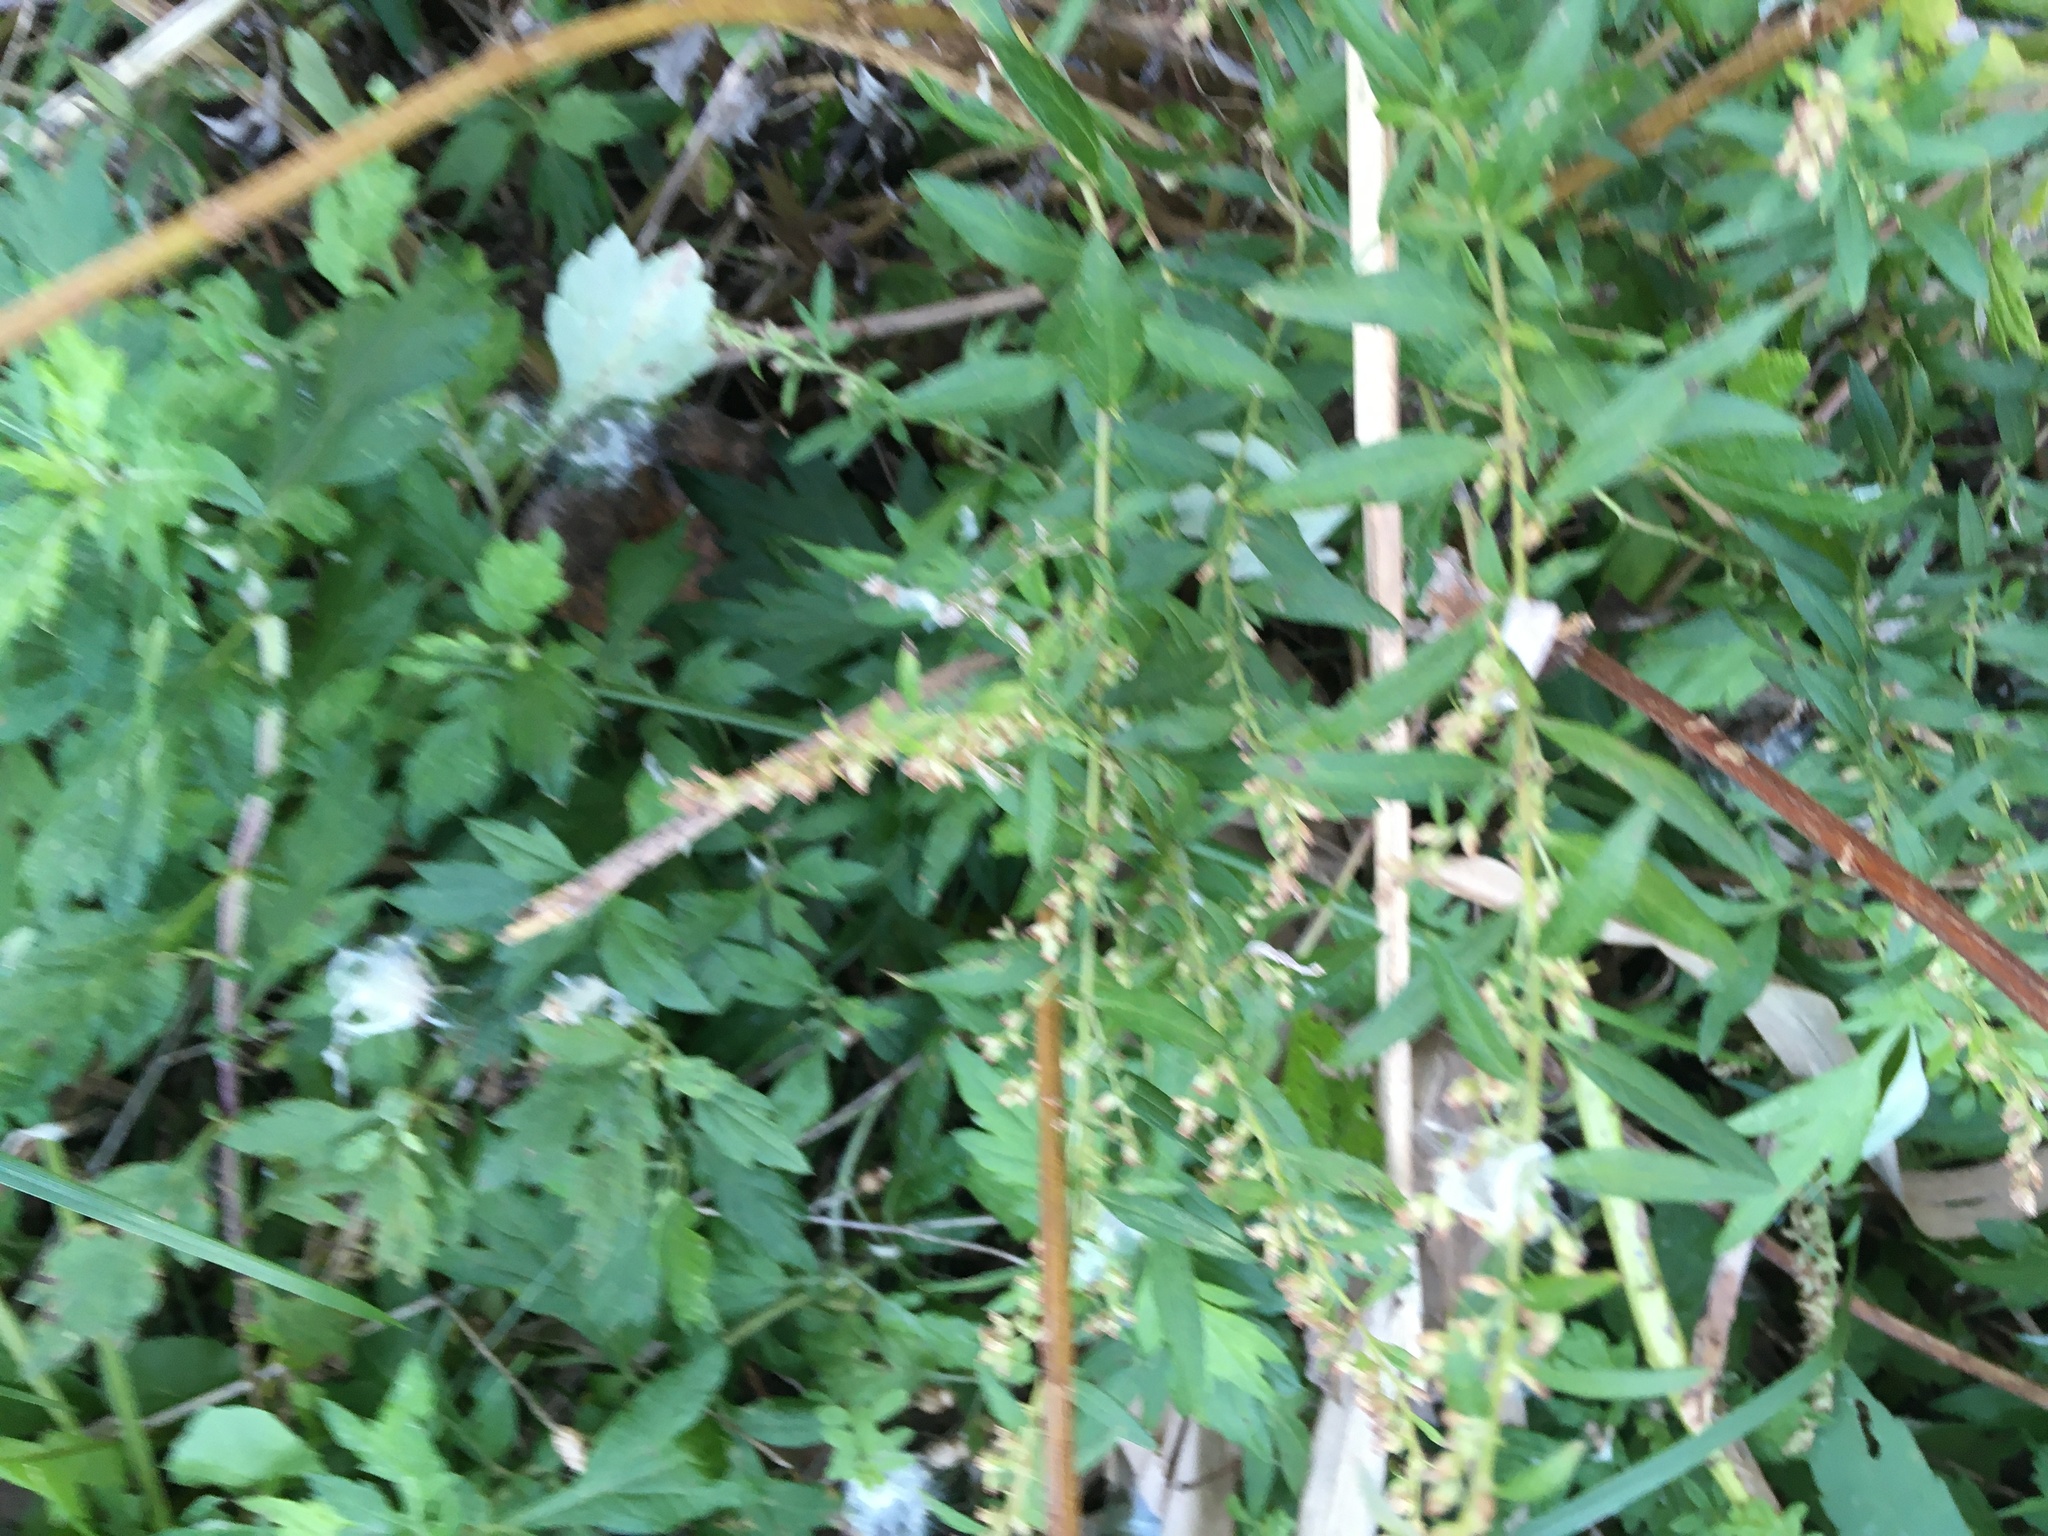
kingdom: Plantae
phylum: Tracheophyta
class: Magnoliopsida
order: Asterales
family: Asteraceae
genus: Artemisia
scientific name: Artemisia vulgaris
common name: Mugwort
